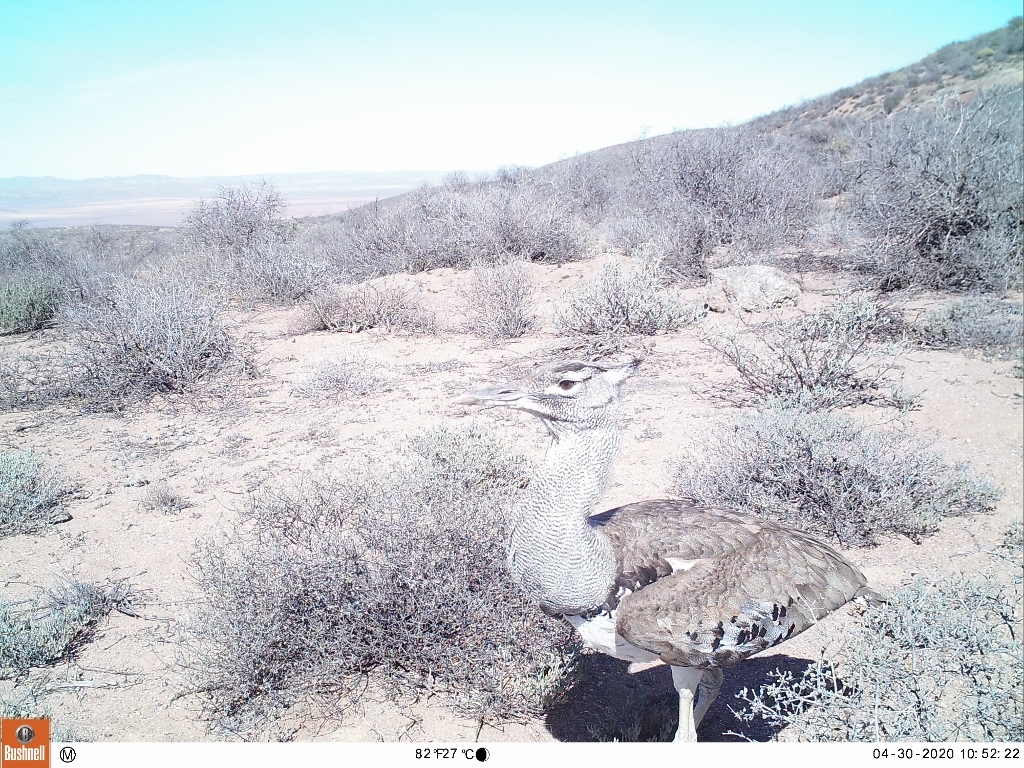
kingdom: Animalia
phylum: Chordata
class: Aves
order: Otidiformes
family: Otididae
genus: Ardeotis
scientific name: Ardeotis kori
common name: Kori bustard
